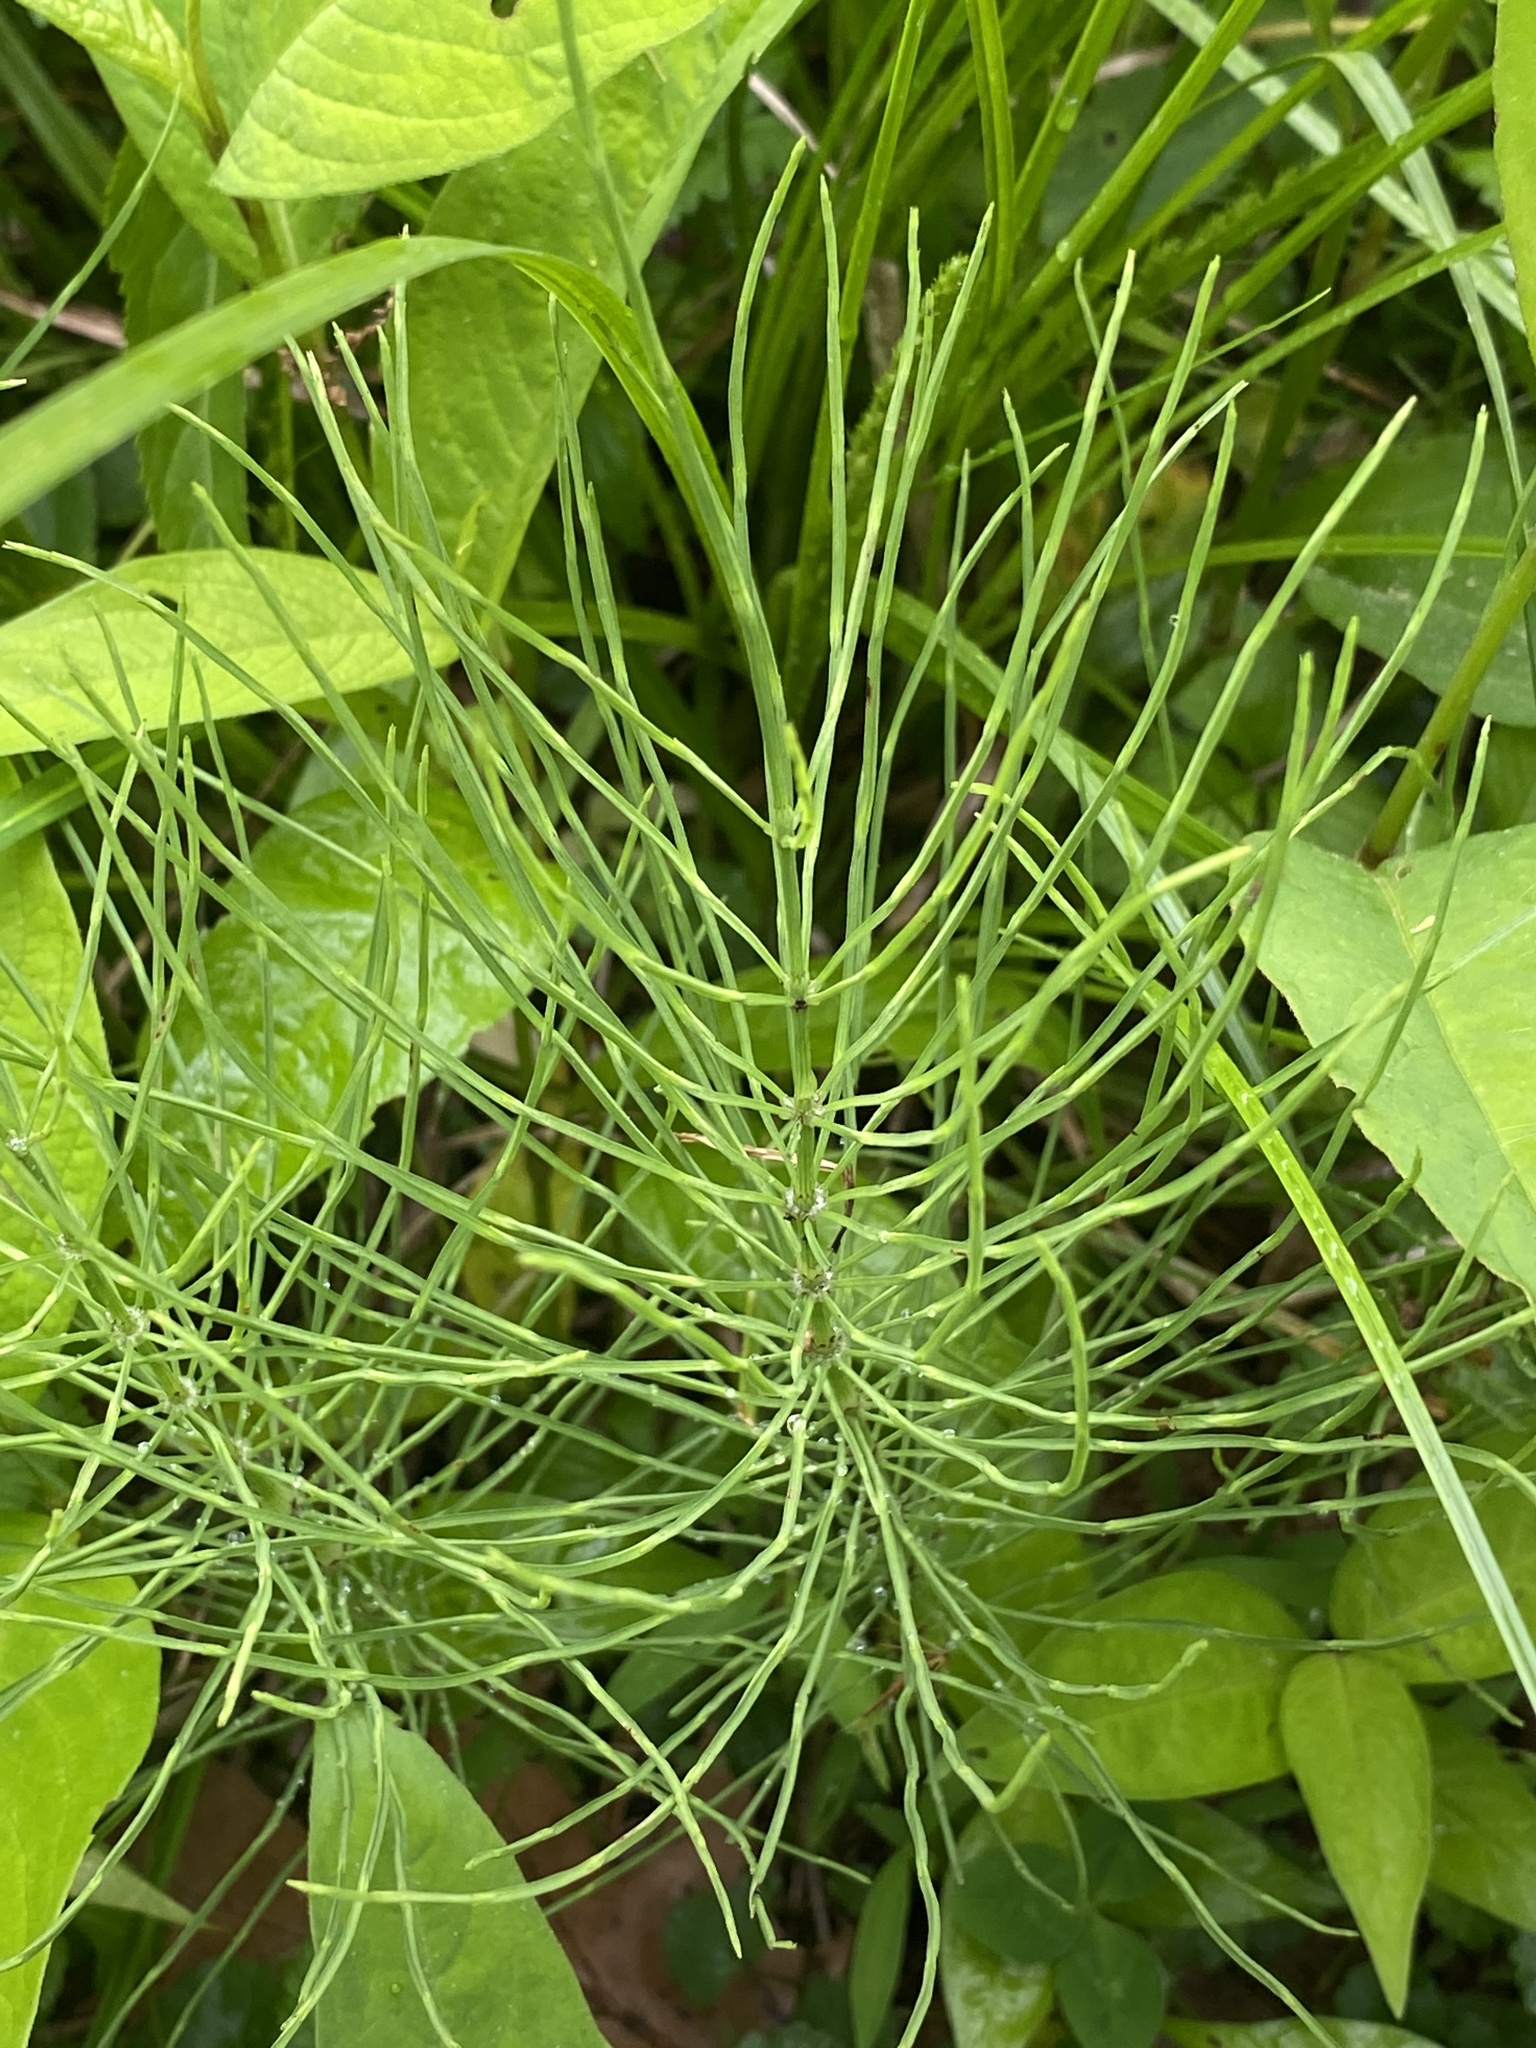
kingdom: Plantae
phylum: Tracheophyta
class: Polypodiopsida
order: Equisetales
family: Equisetaceae
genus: Equisetum
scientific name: Equisetum arvense
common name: Field horsetail
